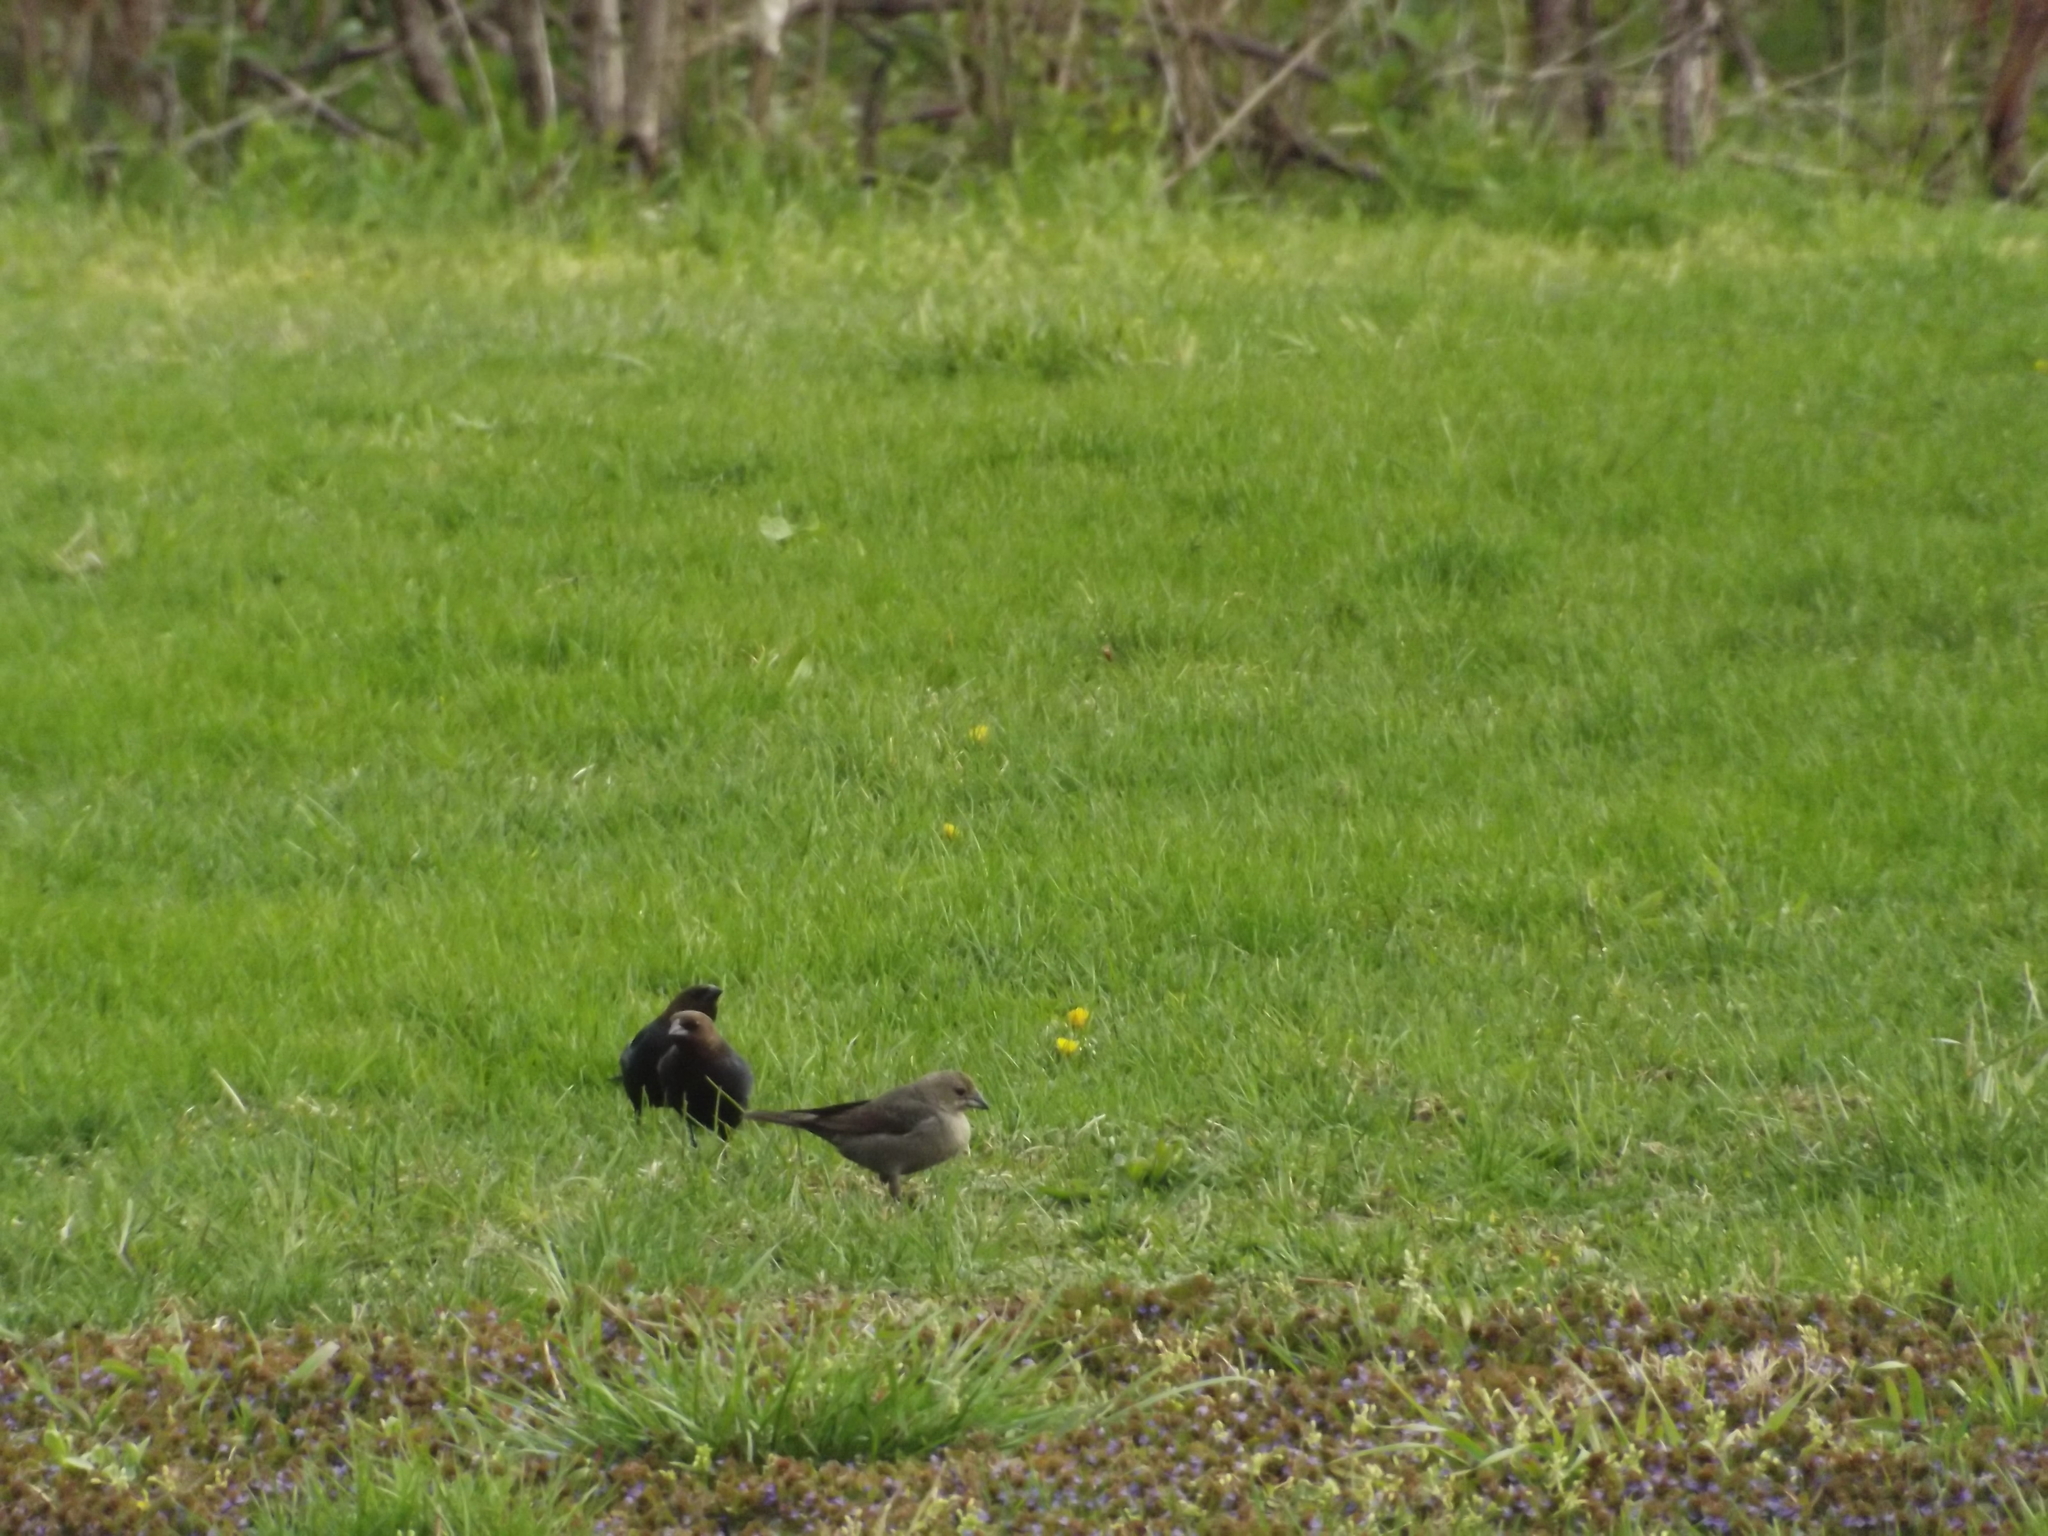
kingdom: Animalia
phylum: Chordata
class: Aves
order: Passeriformes
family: Icteridae
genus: Molothrus
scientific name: Molothrus ater
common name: Brown-headed cowbird
